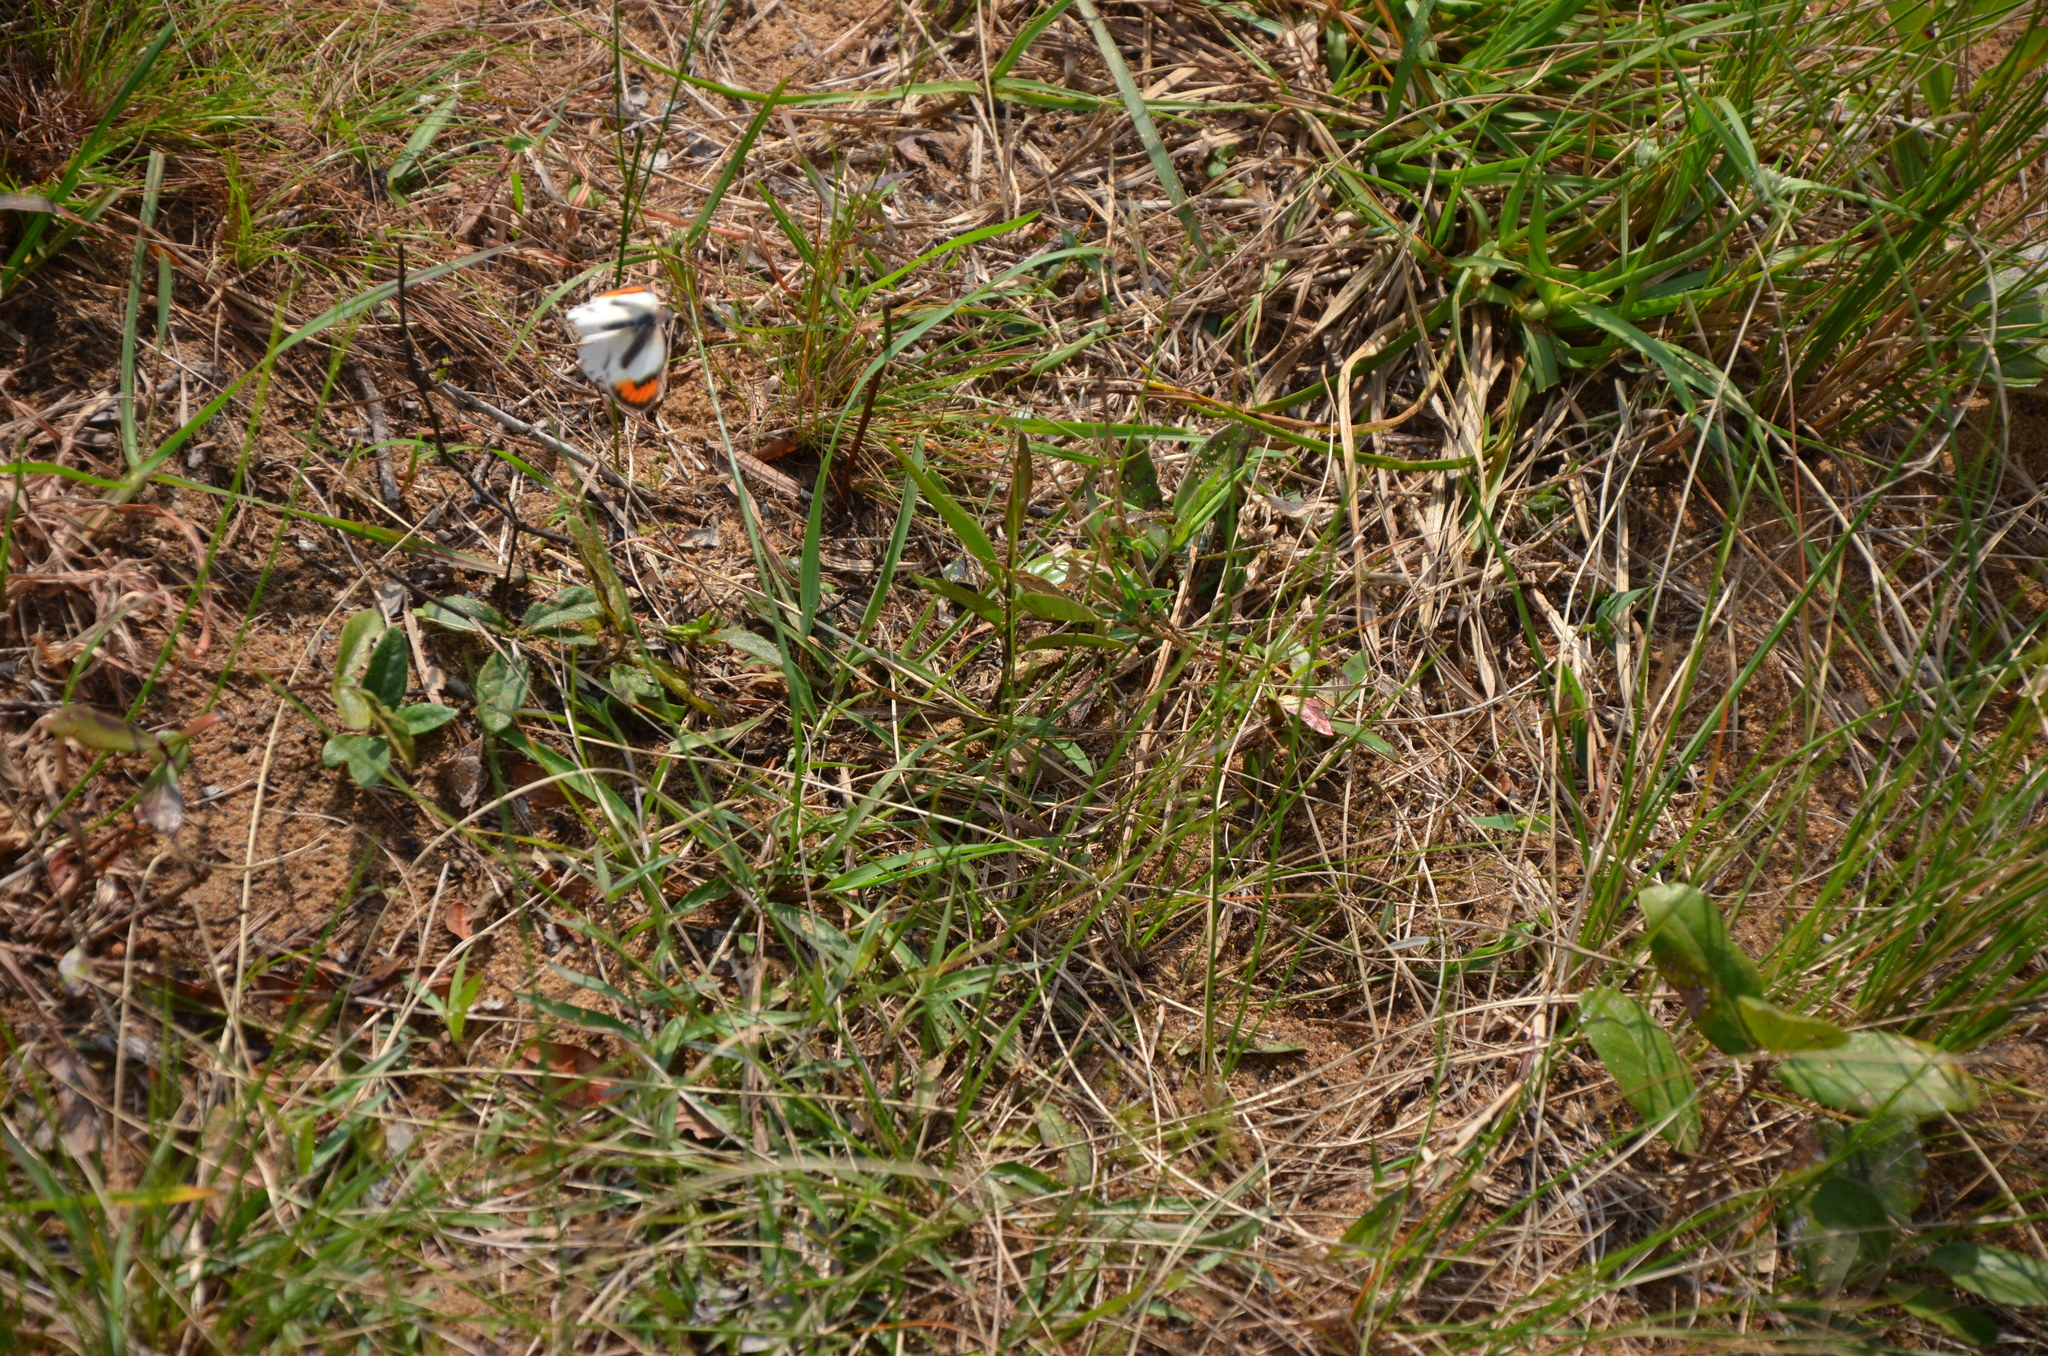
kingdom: Animalia
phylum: Arthropoda
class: Insecta
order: Lepidoptera
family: Pieridae
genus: Colotis
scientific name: Colotis euippe
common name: Round-winged orange tip
